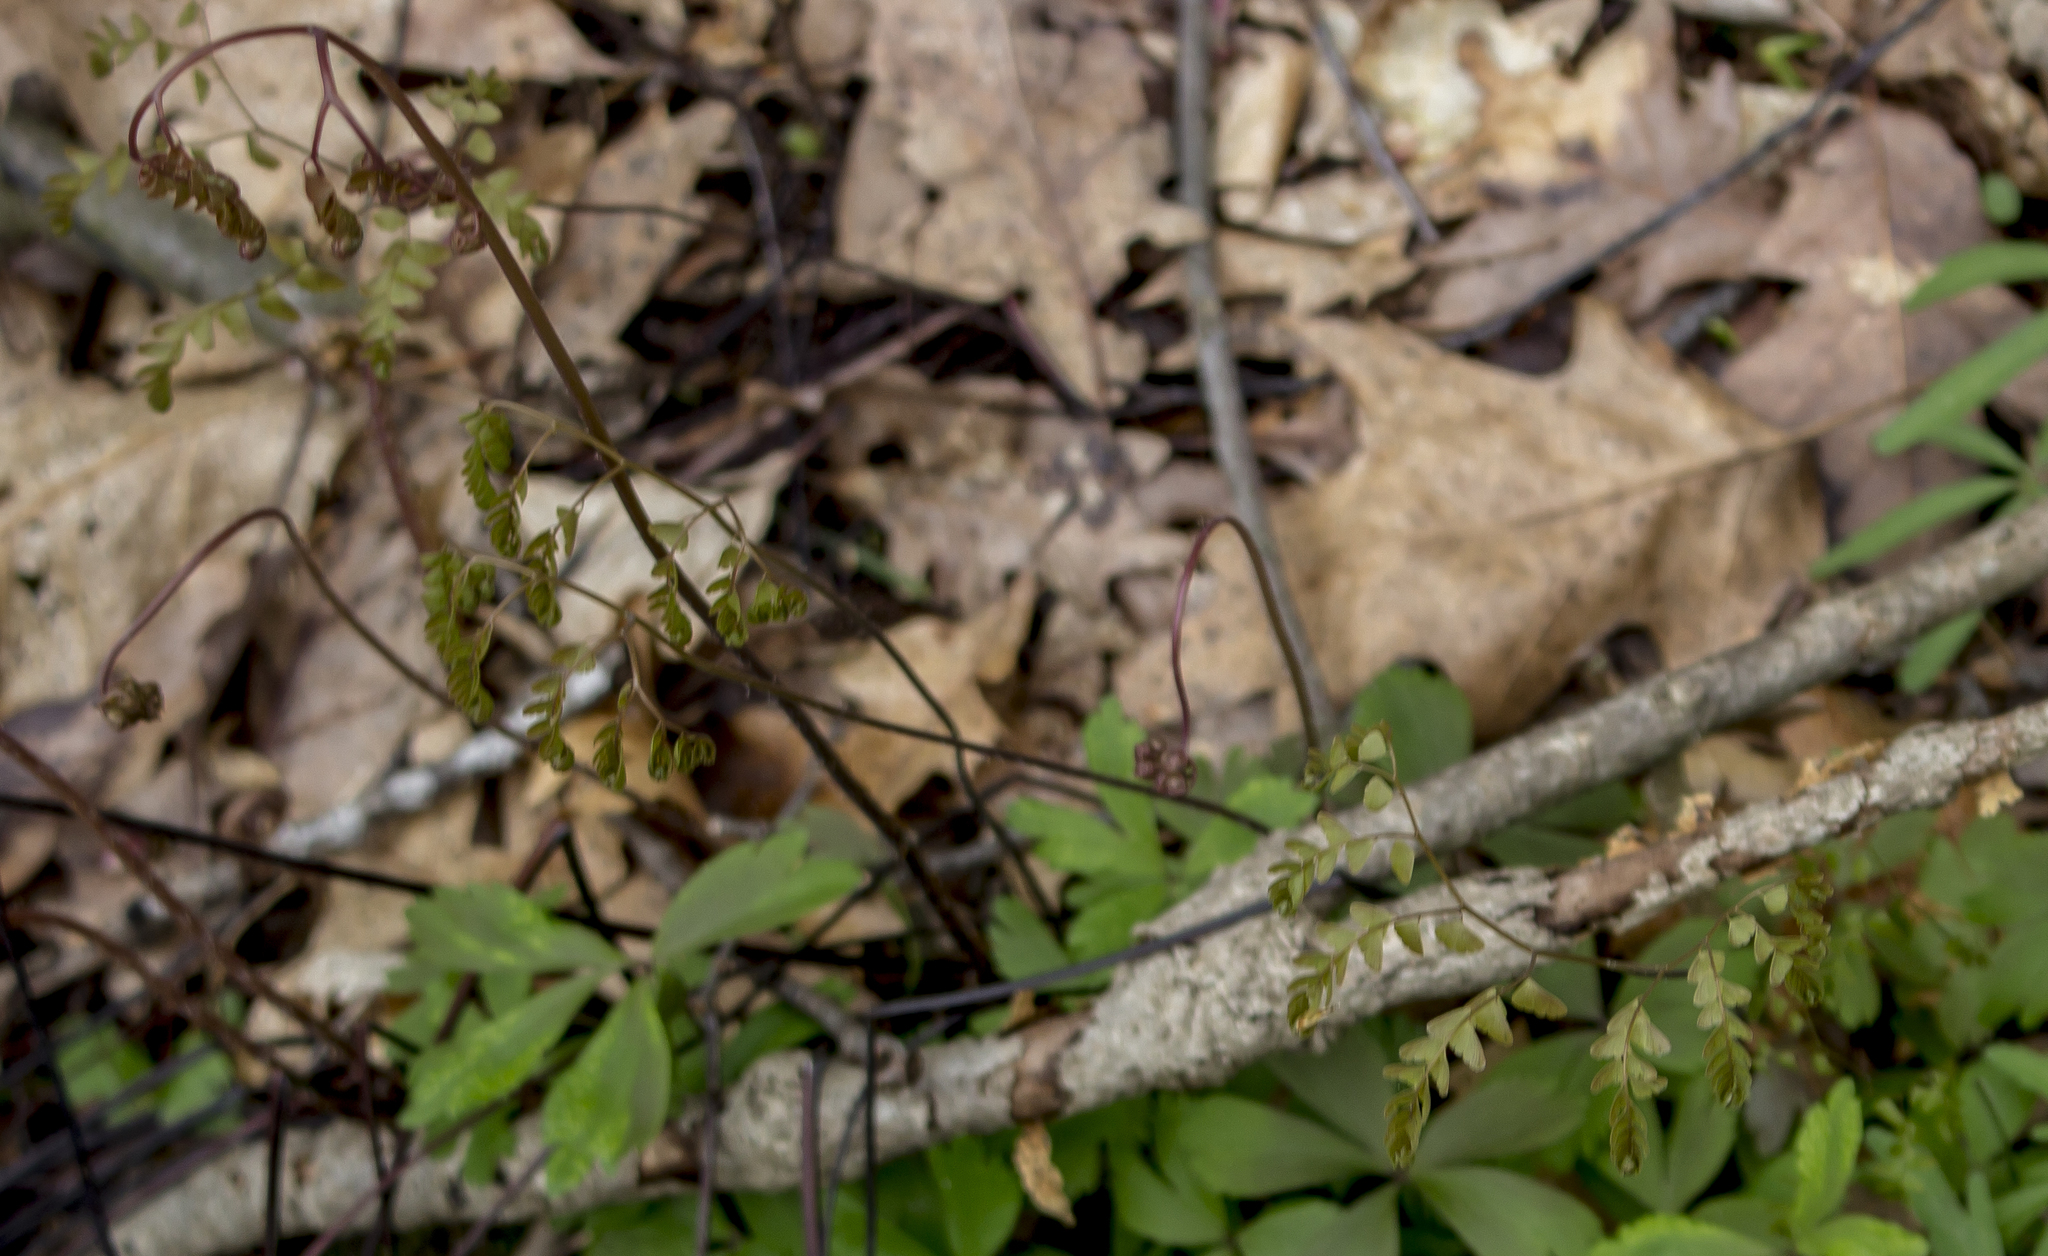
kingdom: Plantae
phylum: Tracheophyta
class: Polypodiopsida
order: Polypodiales
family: Pteridaceae
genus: Adiantum
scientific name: Adiantum pedatum
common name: Five-finger fern
